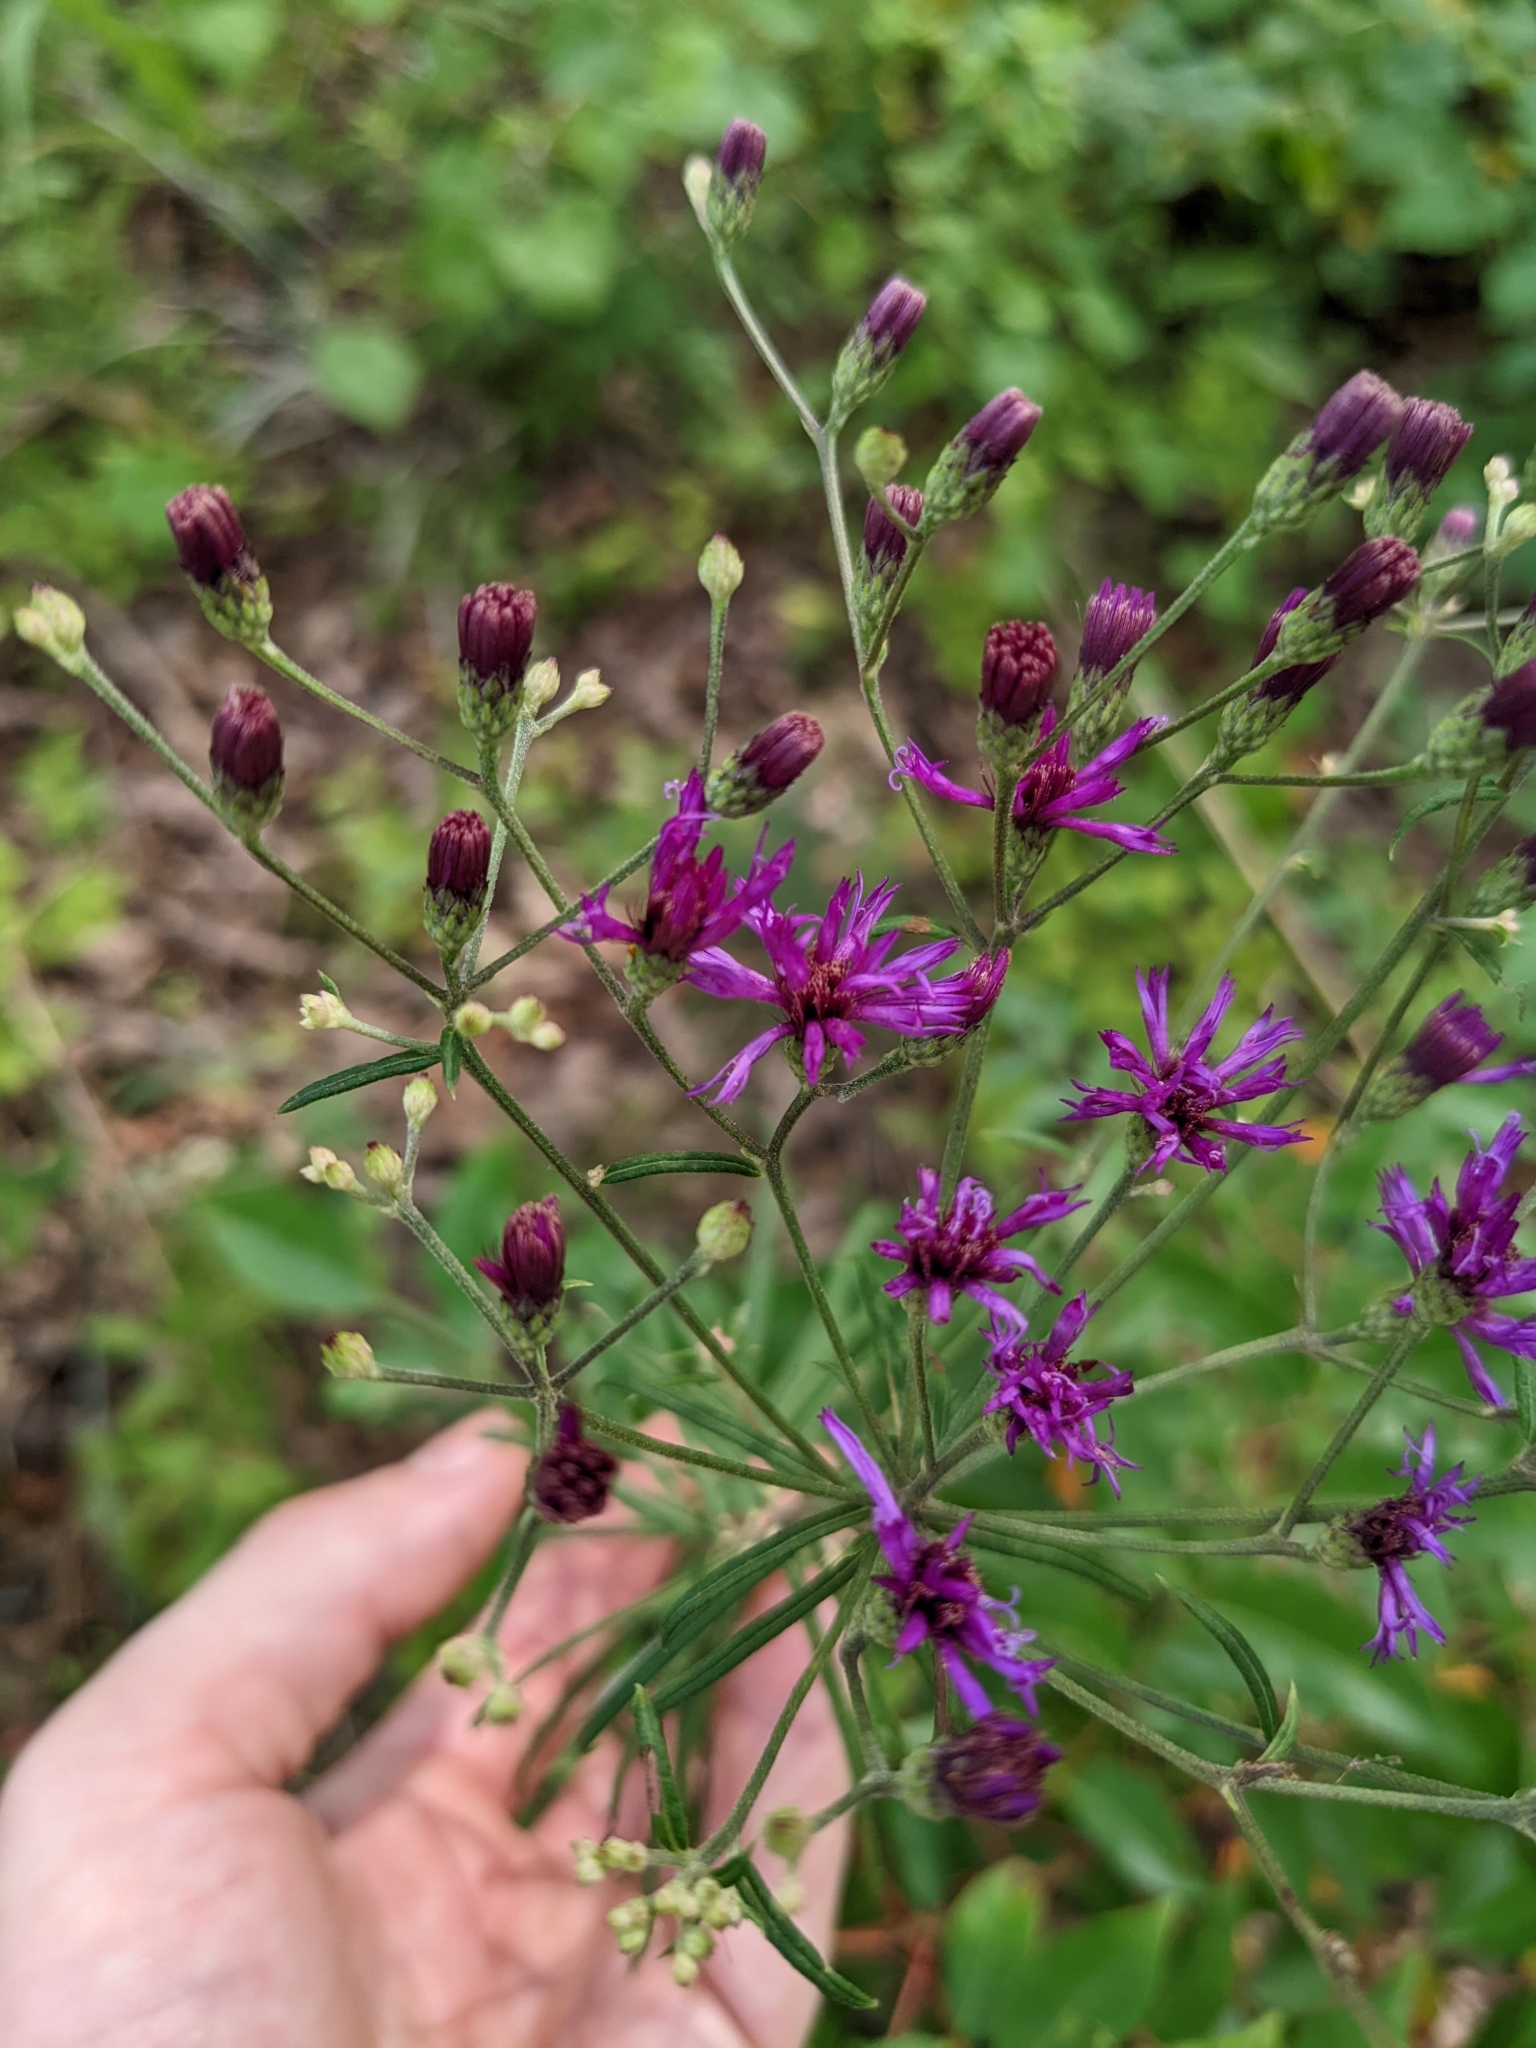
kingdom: Plantae
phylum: Tracheophyta
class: Magnoliopsida
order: Asterales
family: Asteraceae
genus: Vernonia
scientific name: Vernonia angustifolia
